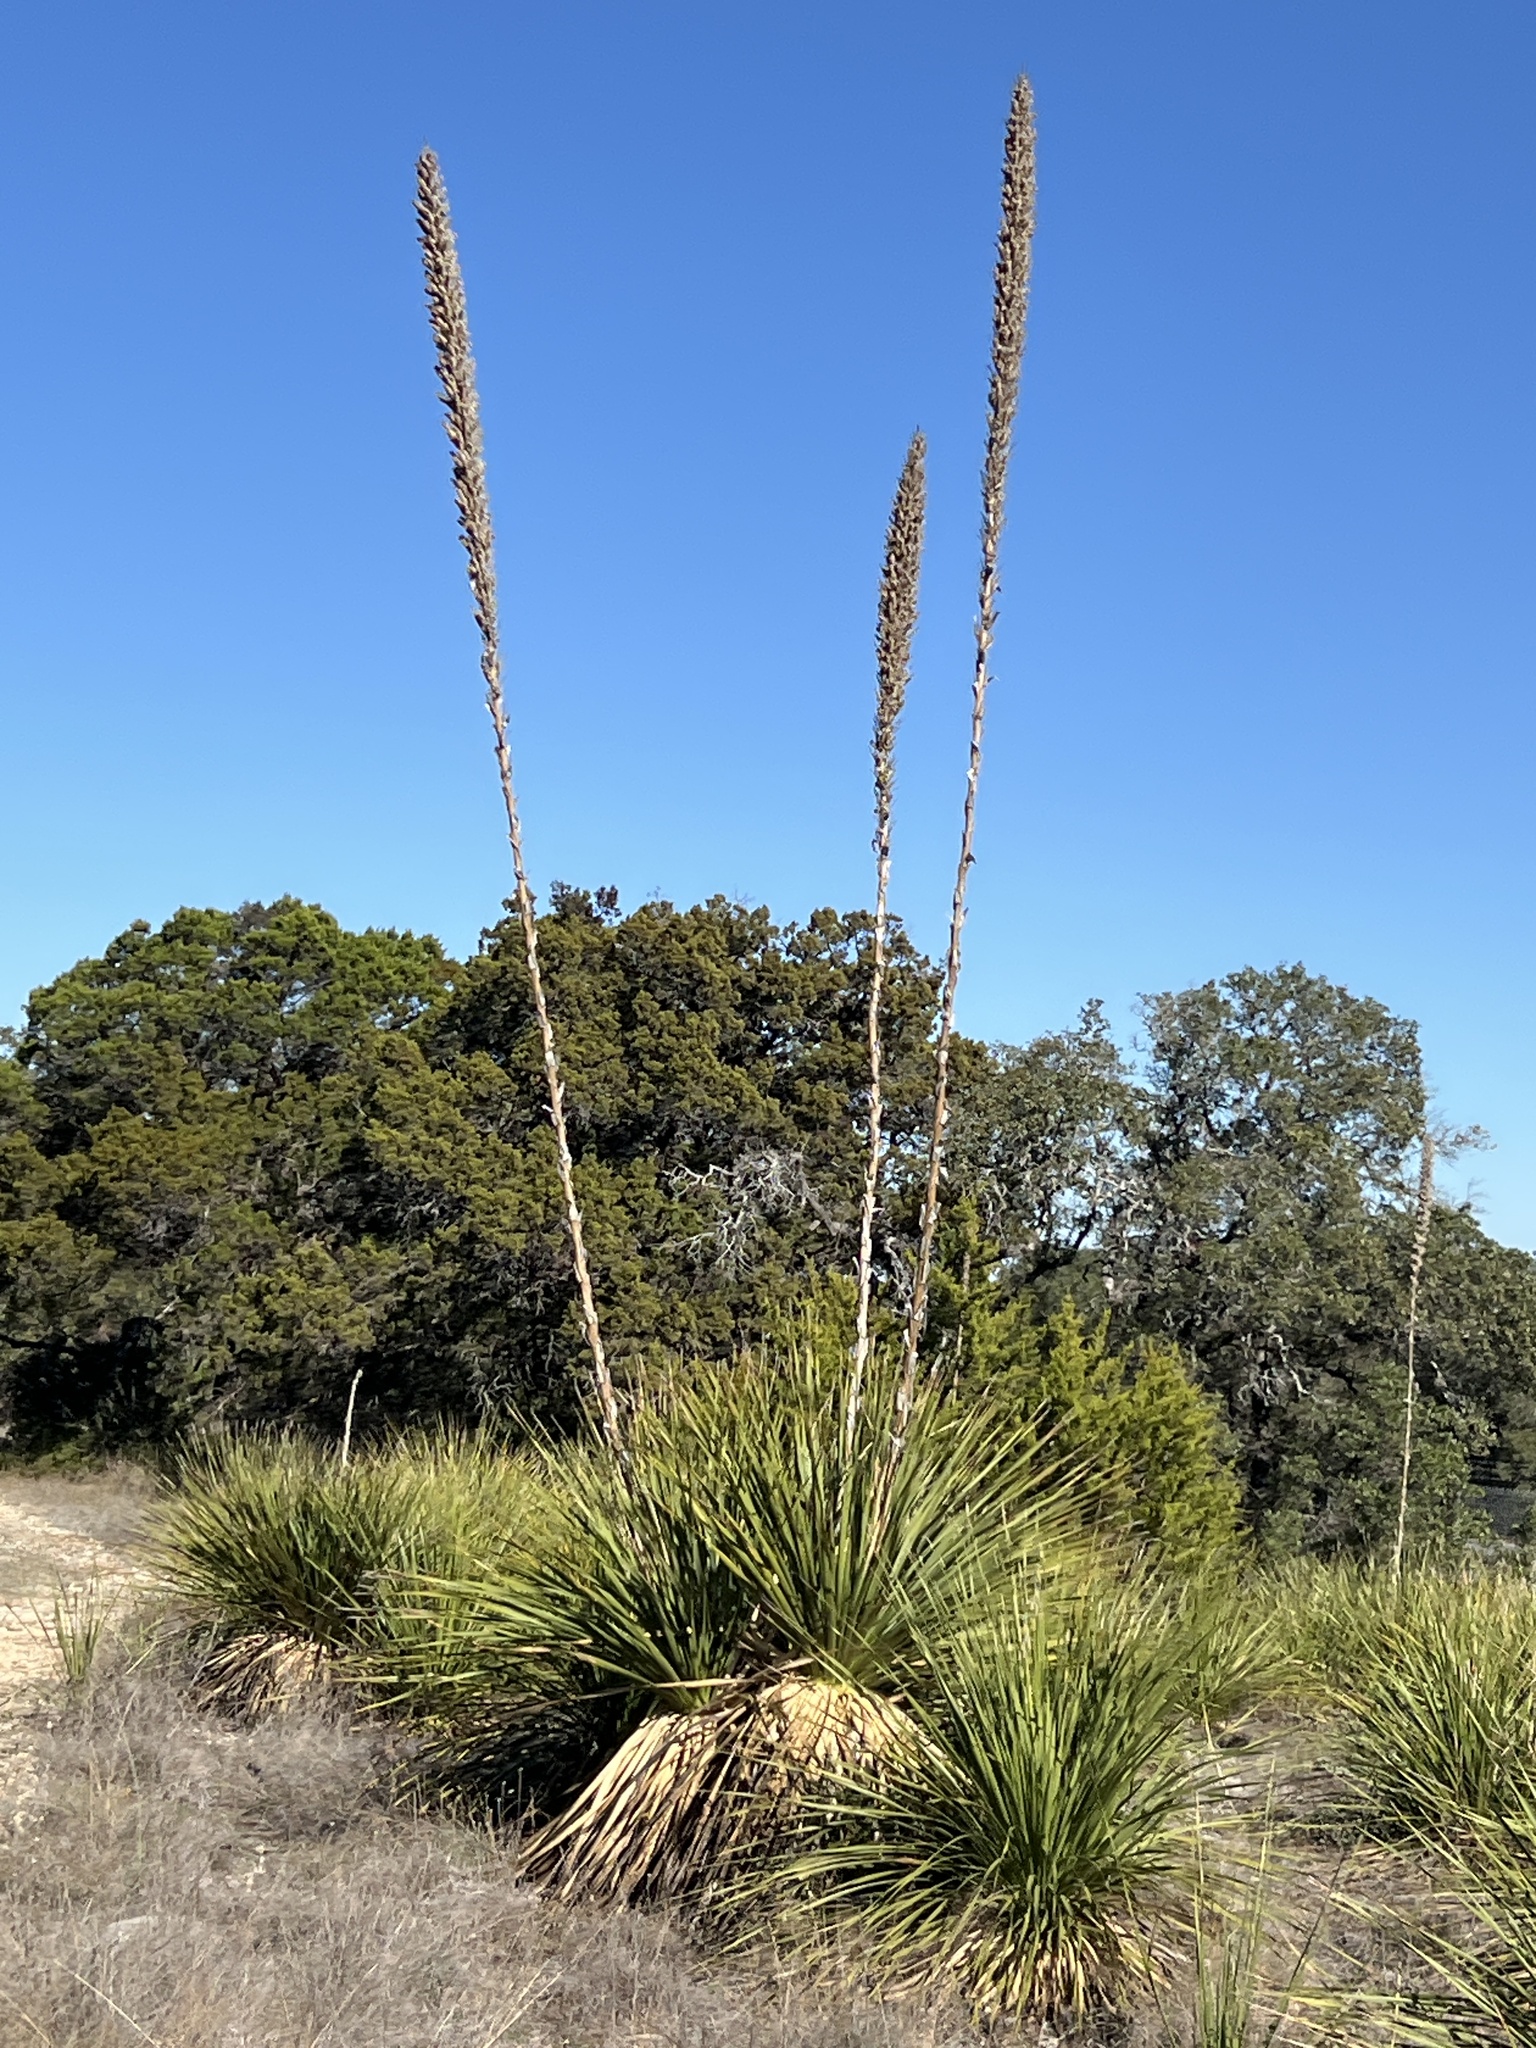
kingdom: Plantae
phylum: Tracheophyta
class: Liliopsida
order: Asparagales
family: Asparagaceae
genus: Dasylirion
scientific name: Dasylirion texanum
